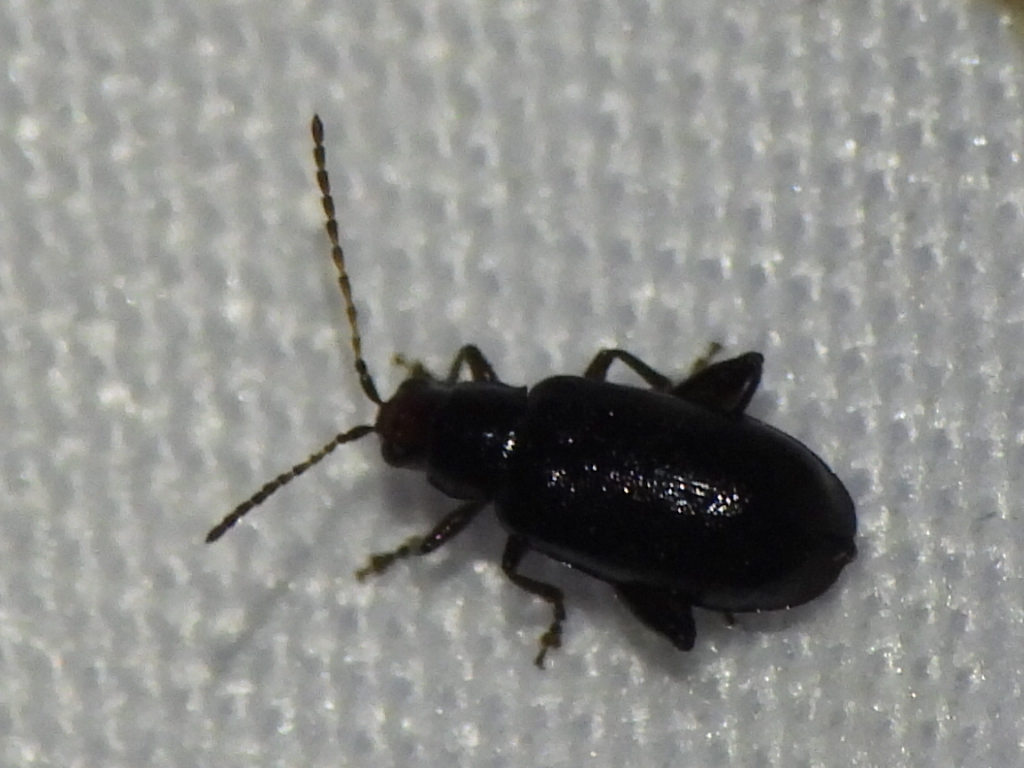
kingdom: Animalia
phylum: Arthropoda
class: Insecta
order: Coleoptera
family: Chrysomelidae
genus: Systena
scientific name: Systena frontalis
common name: Red-headed flea beetle
